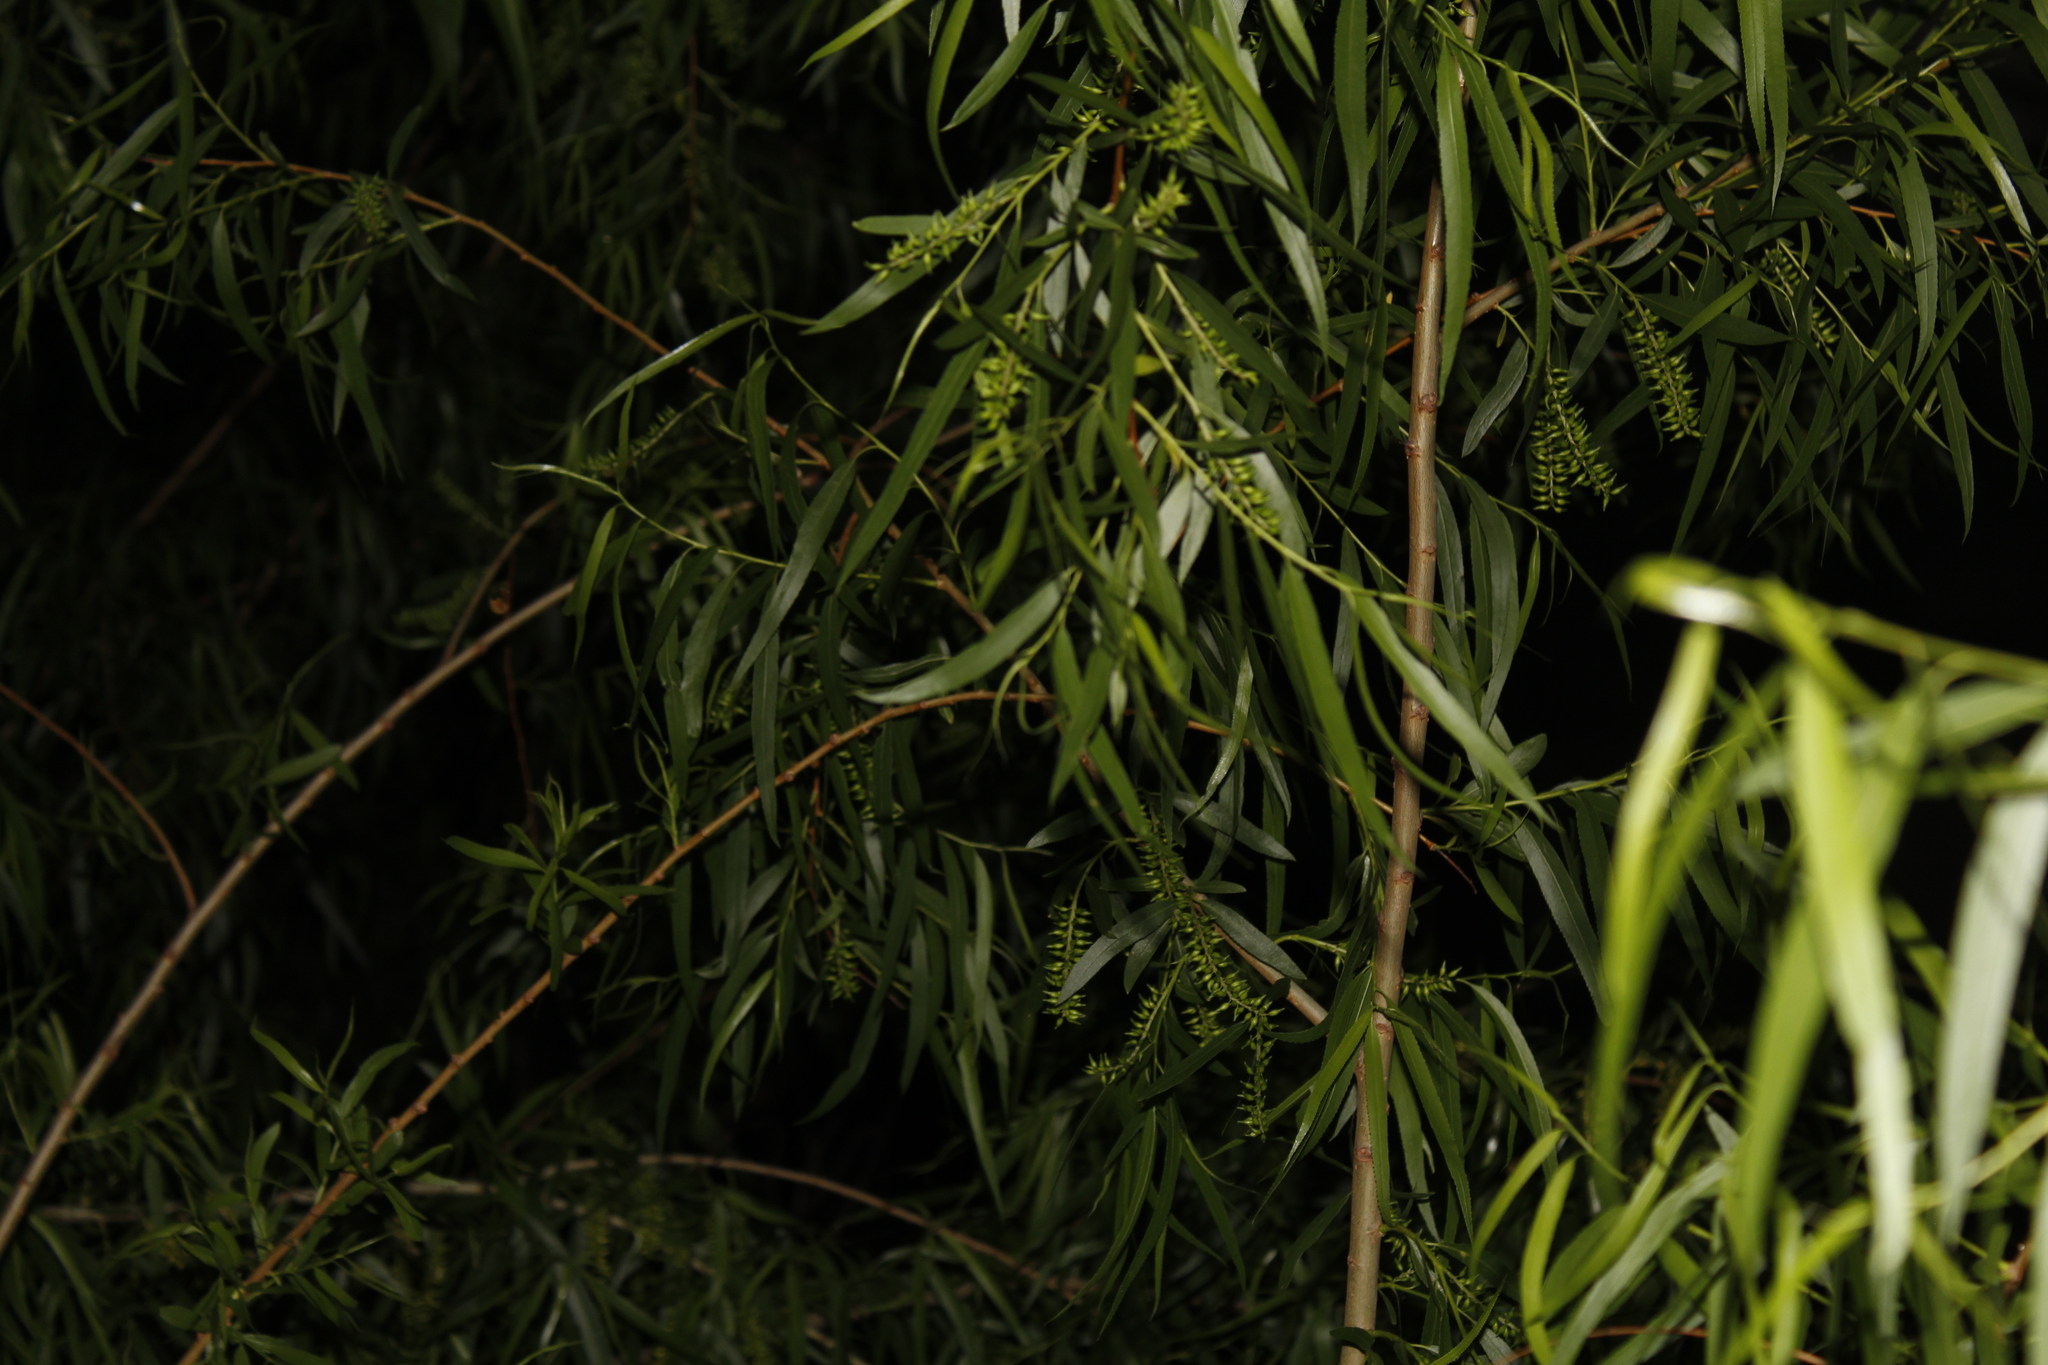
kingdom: Plantae
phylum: Tracheophyta
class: Magnoliopsida
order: Malpighiales
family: Salicaceae
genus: Salix
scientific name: Salix nigra
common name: Black willow
